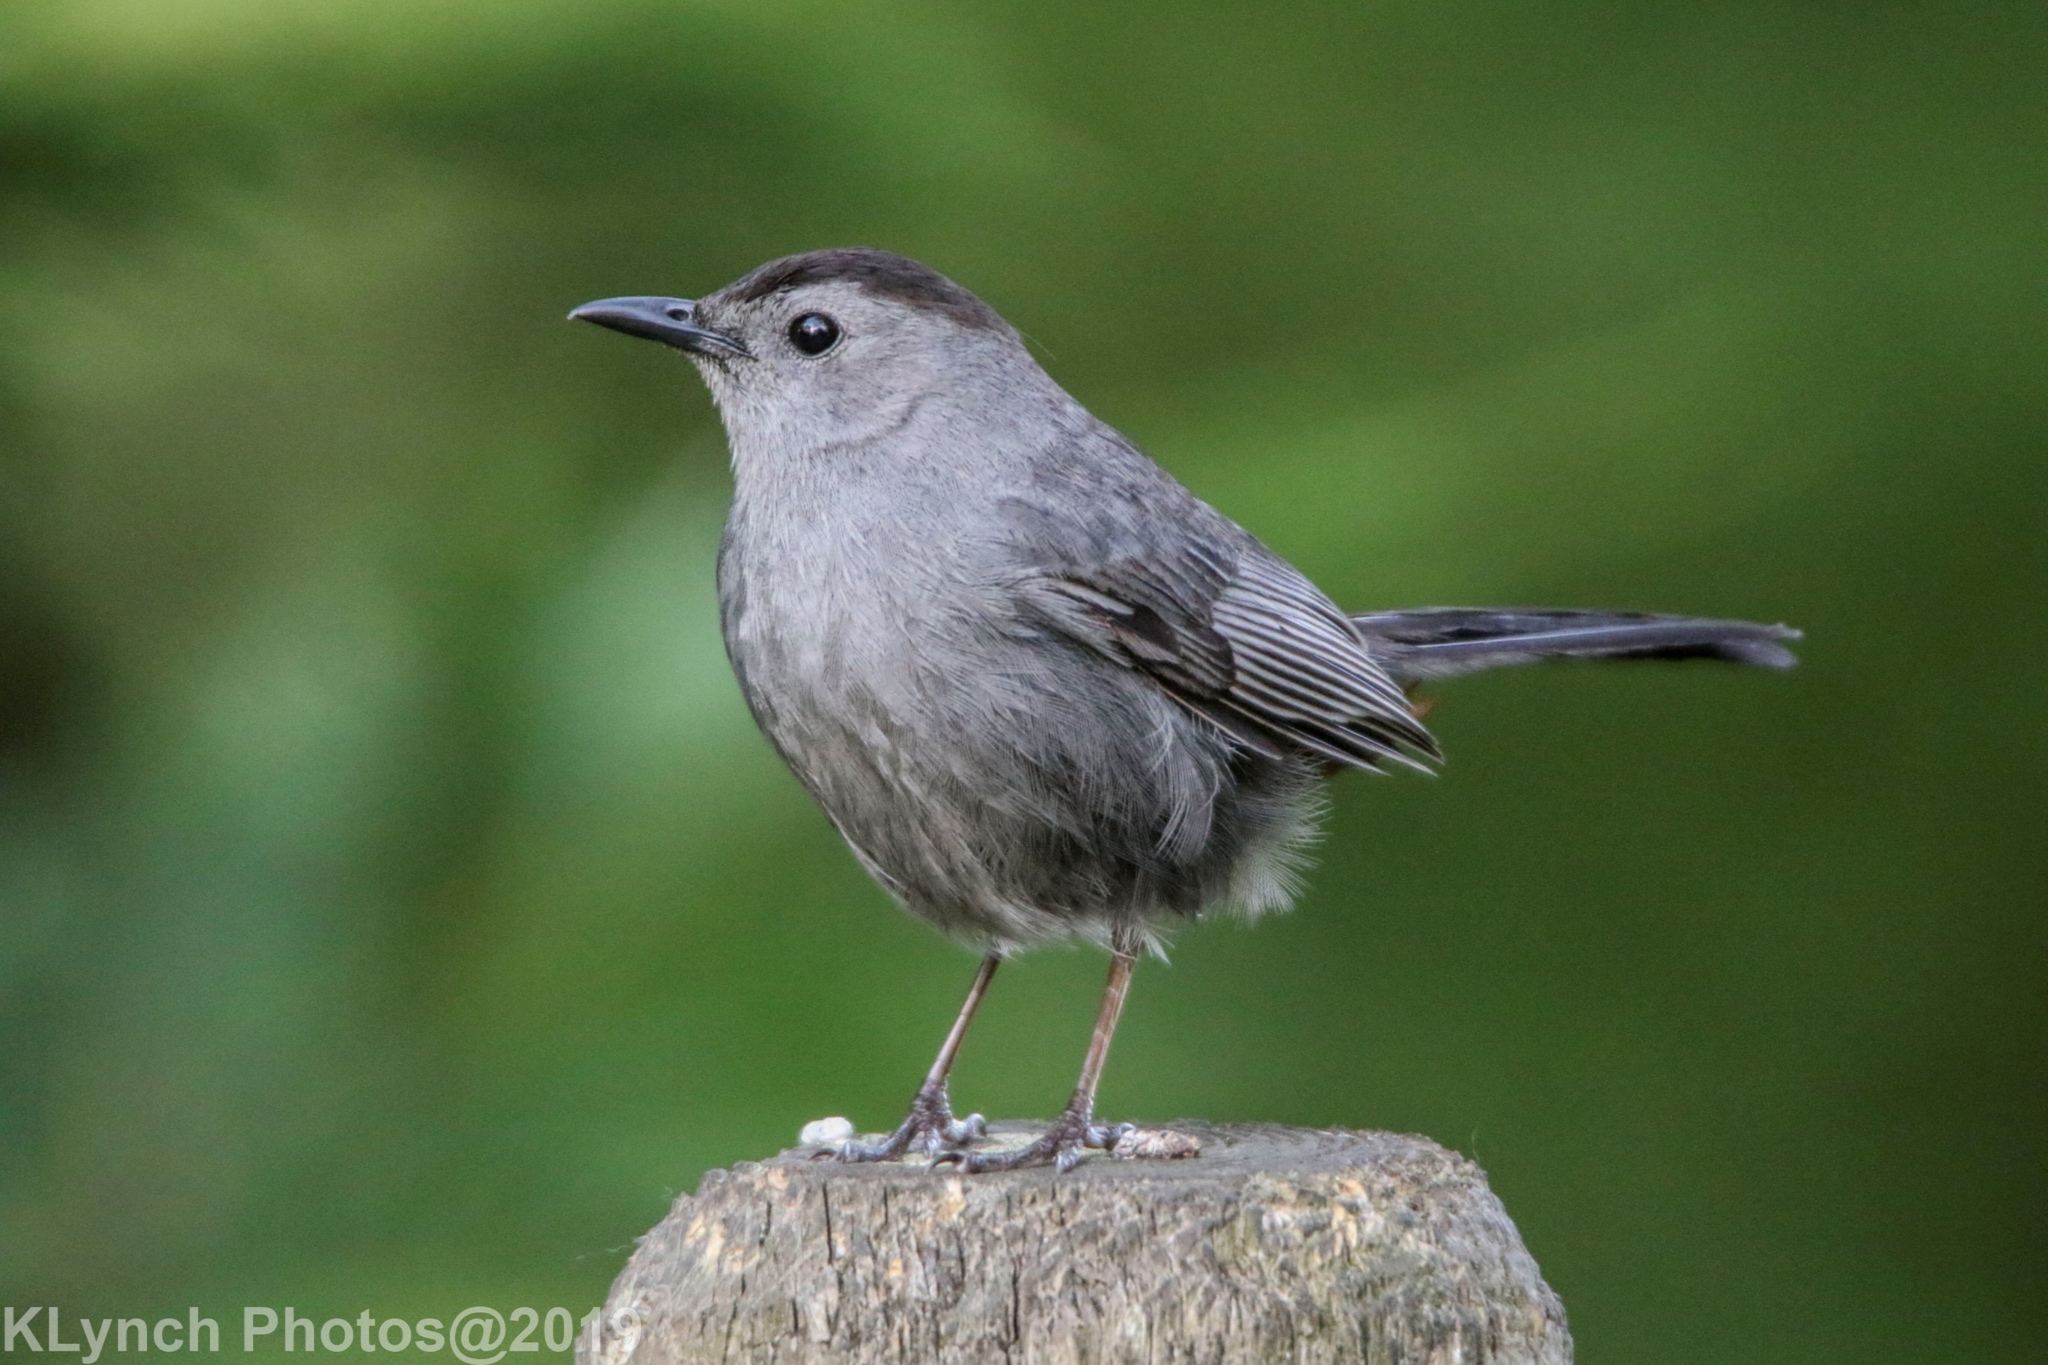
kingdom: Animalia
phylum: Chordata
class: Aves
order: Passeriformes
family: Mimidae
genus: Dumetella
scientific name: Dumetella carolinensis
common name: Gray catbird
